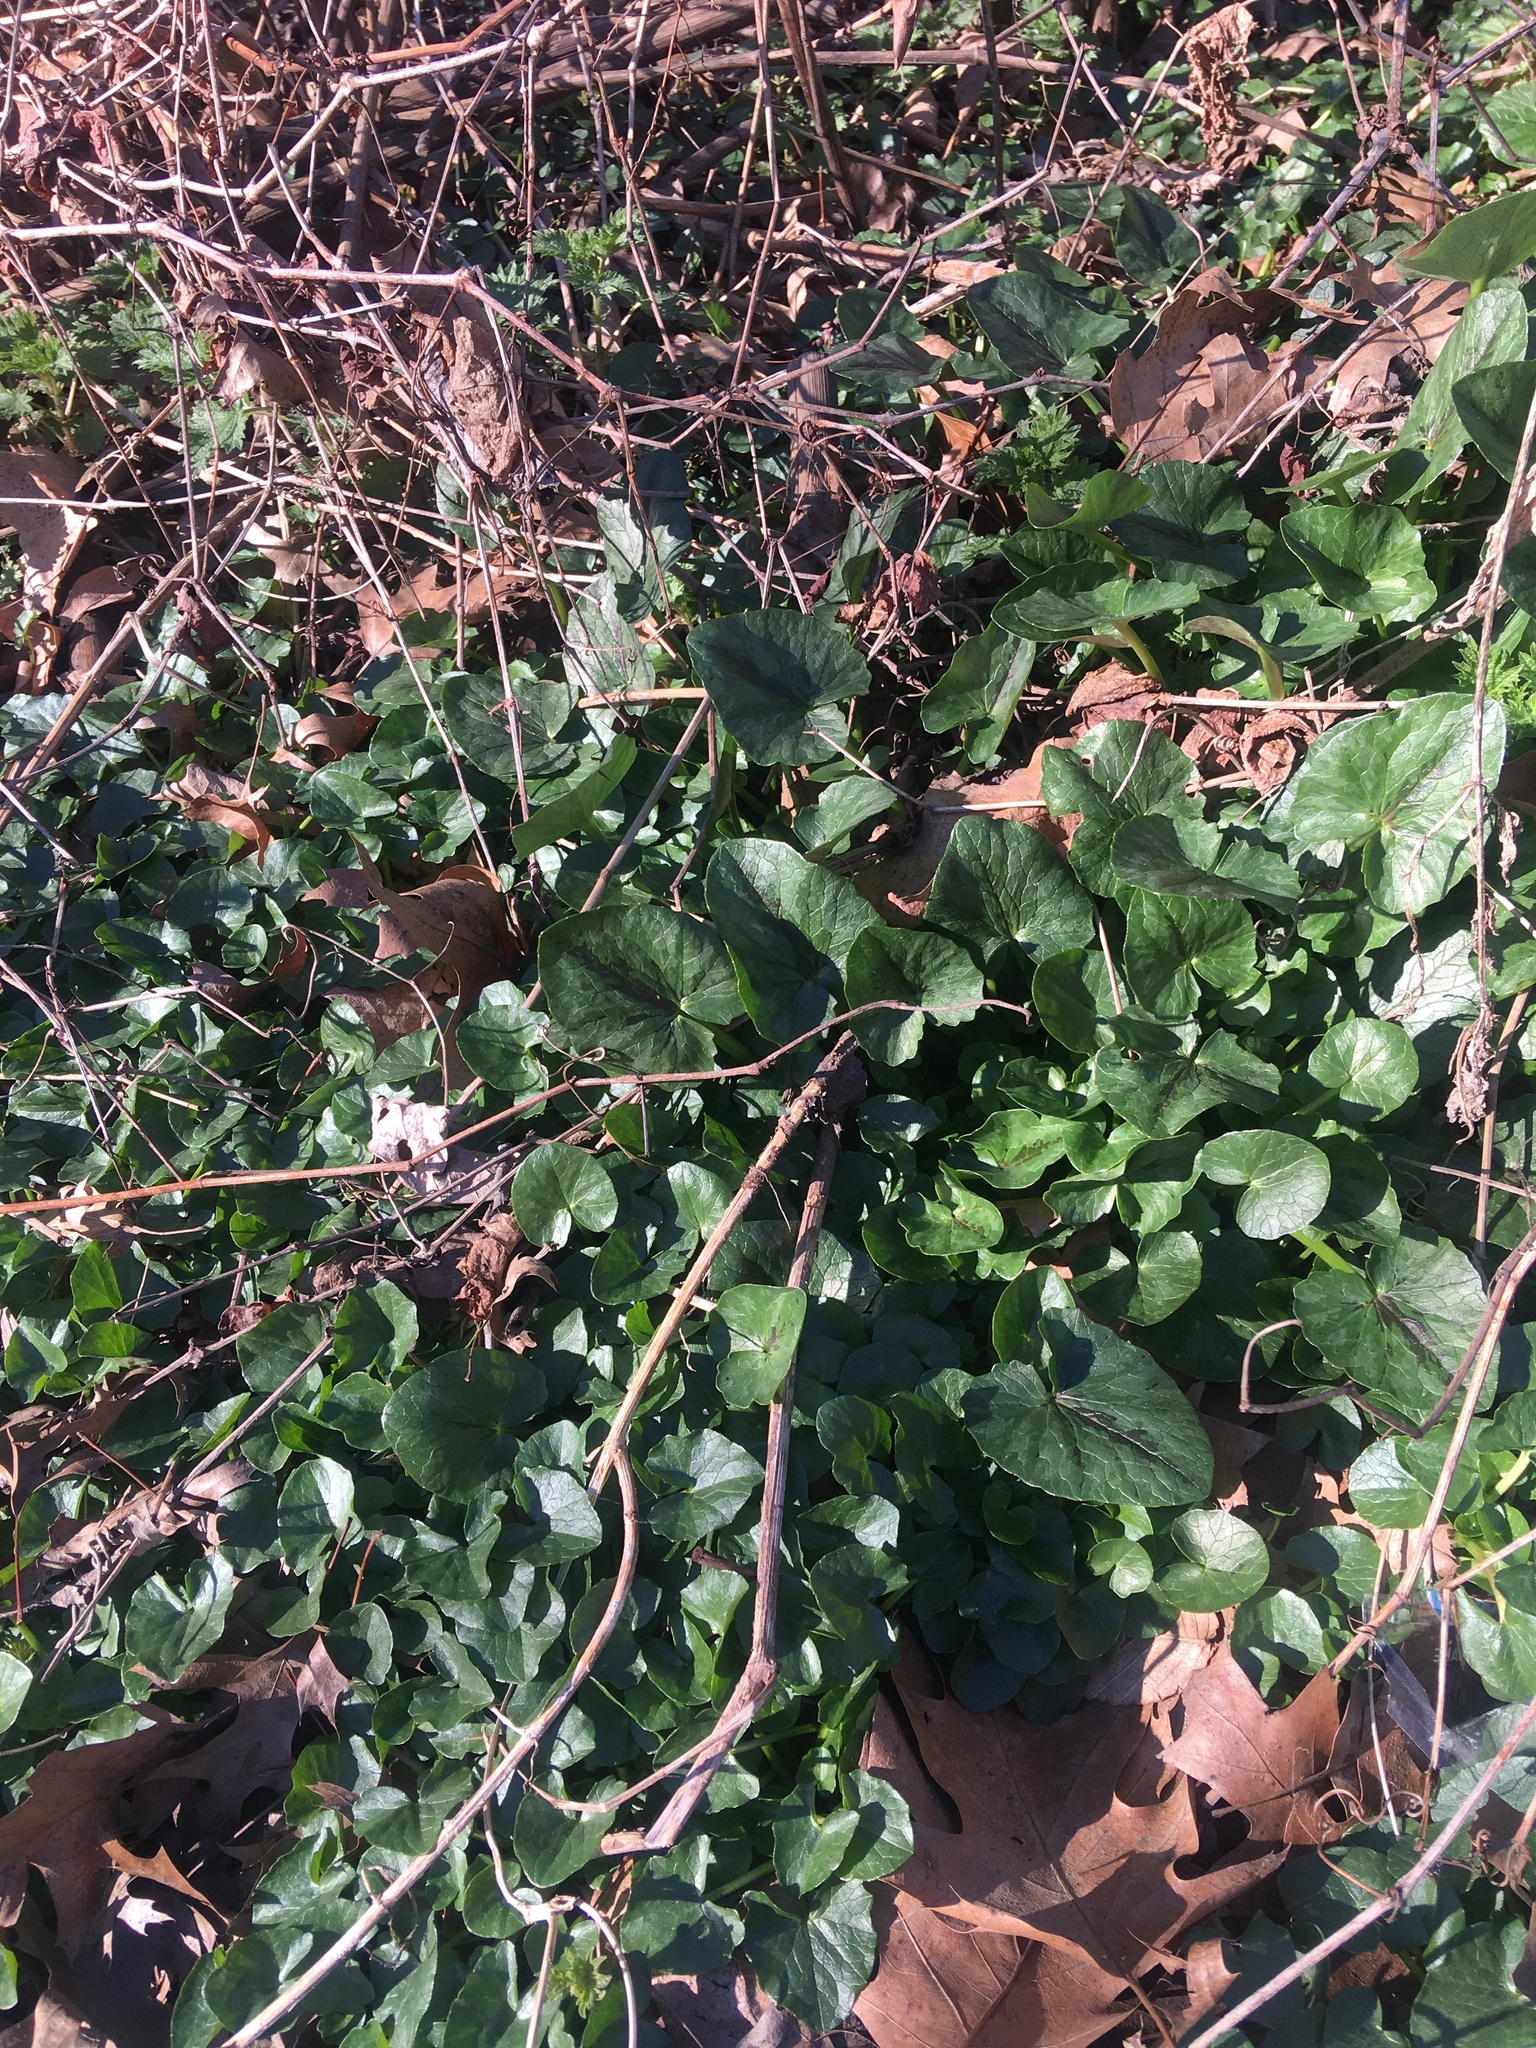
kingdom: Plantae
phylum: Tracheophyta
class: Magnoliopsida
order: Ranunculales
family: Ranunculaceae
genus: Ficaria
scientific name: Ficaria verna
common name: Lesser celandine
